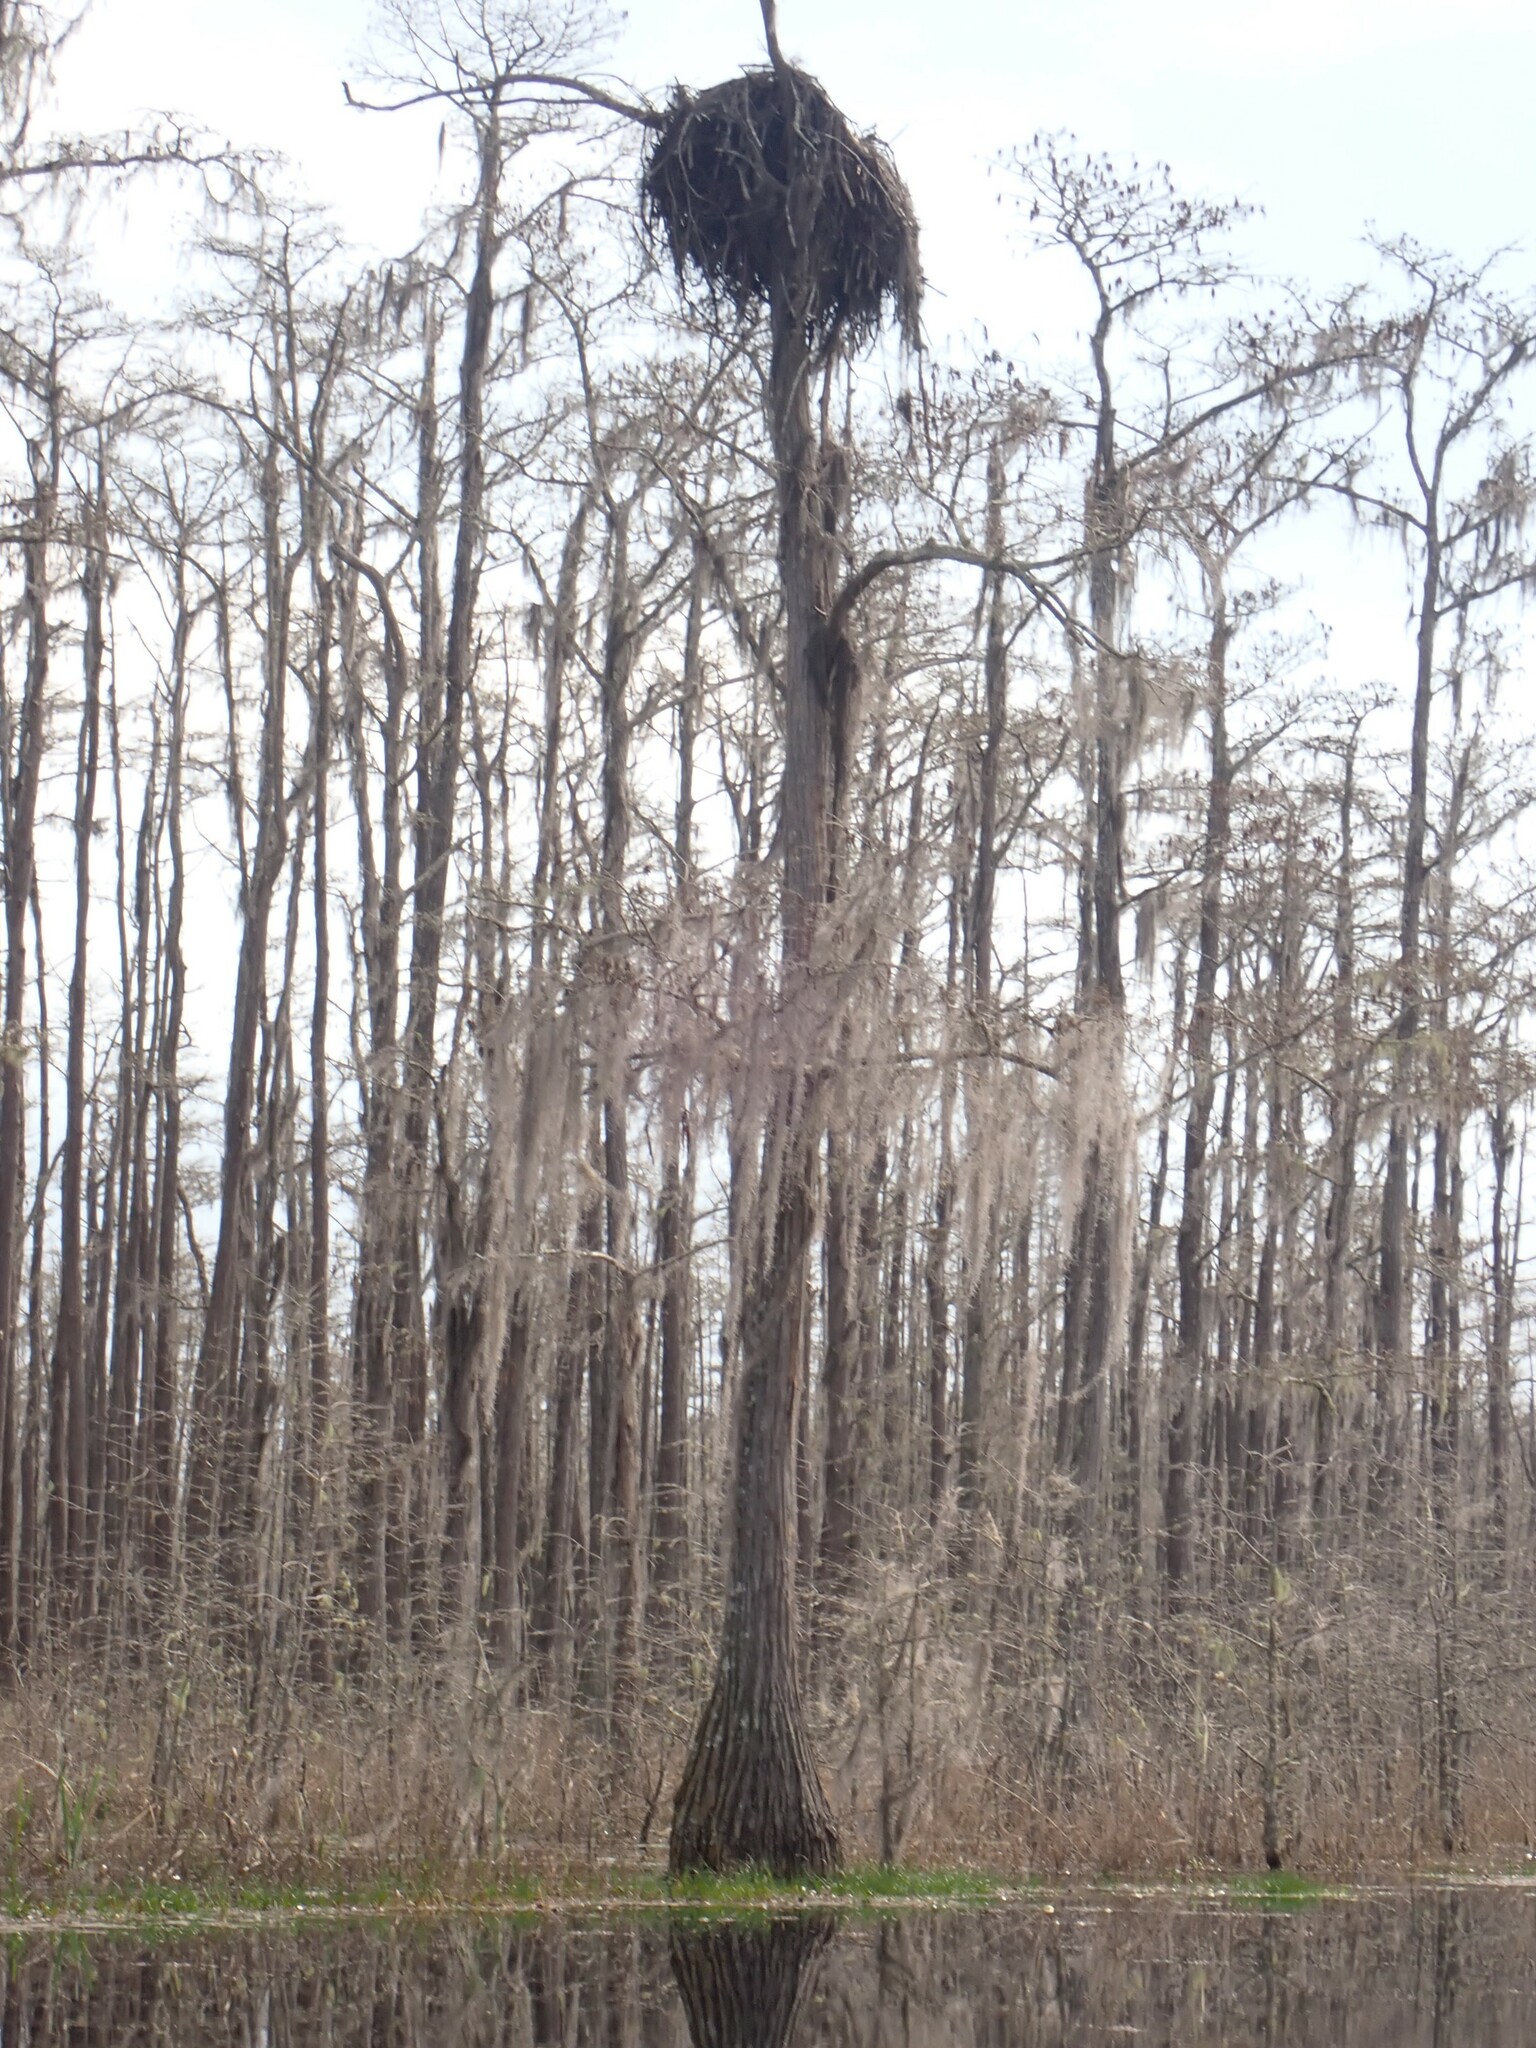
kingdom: Animalia
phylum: Chordata
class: Aves
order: Accipitriformes
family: Pandionidae
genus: Pandion
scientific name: Pandion haliaetus
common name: Osprey
